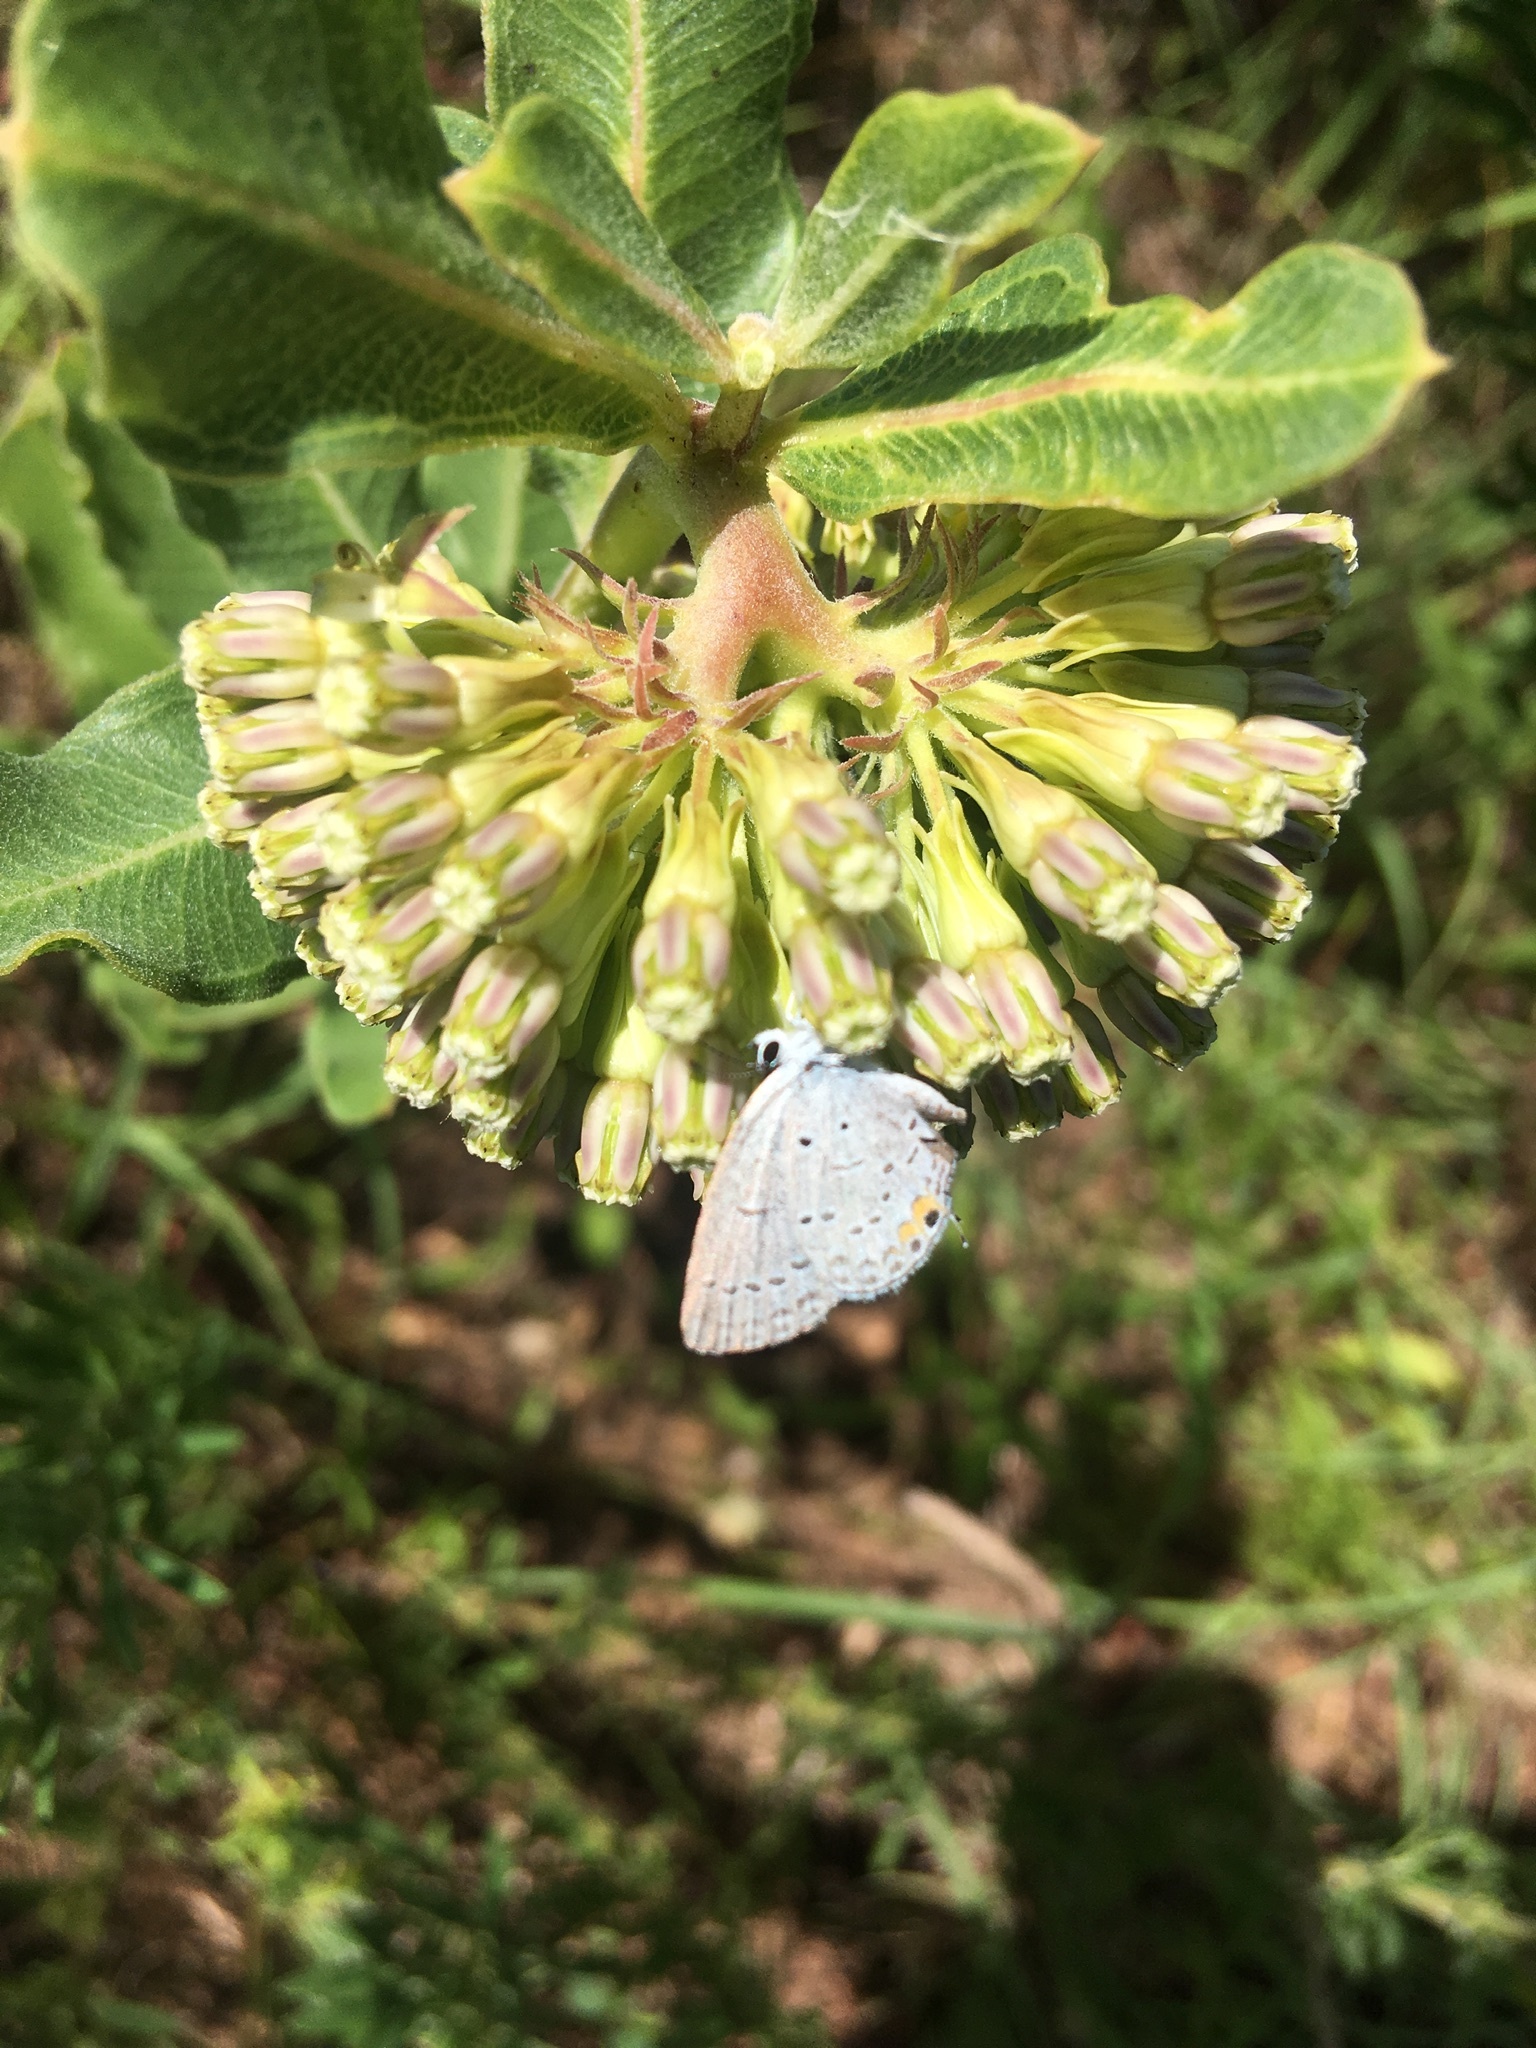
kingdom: Animalia
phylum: Arthropoda
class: Insecta
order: Lepidoptera
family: Lycaenidae
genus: Elkalyce
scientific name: Elkalyce comyntas
